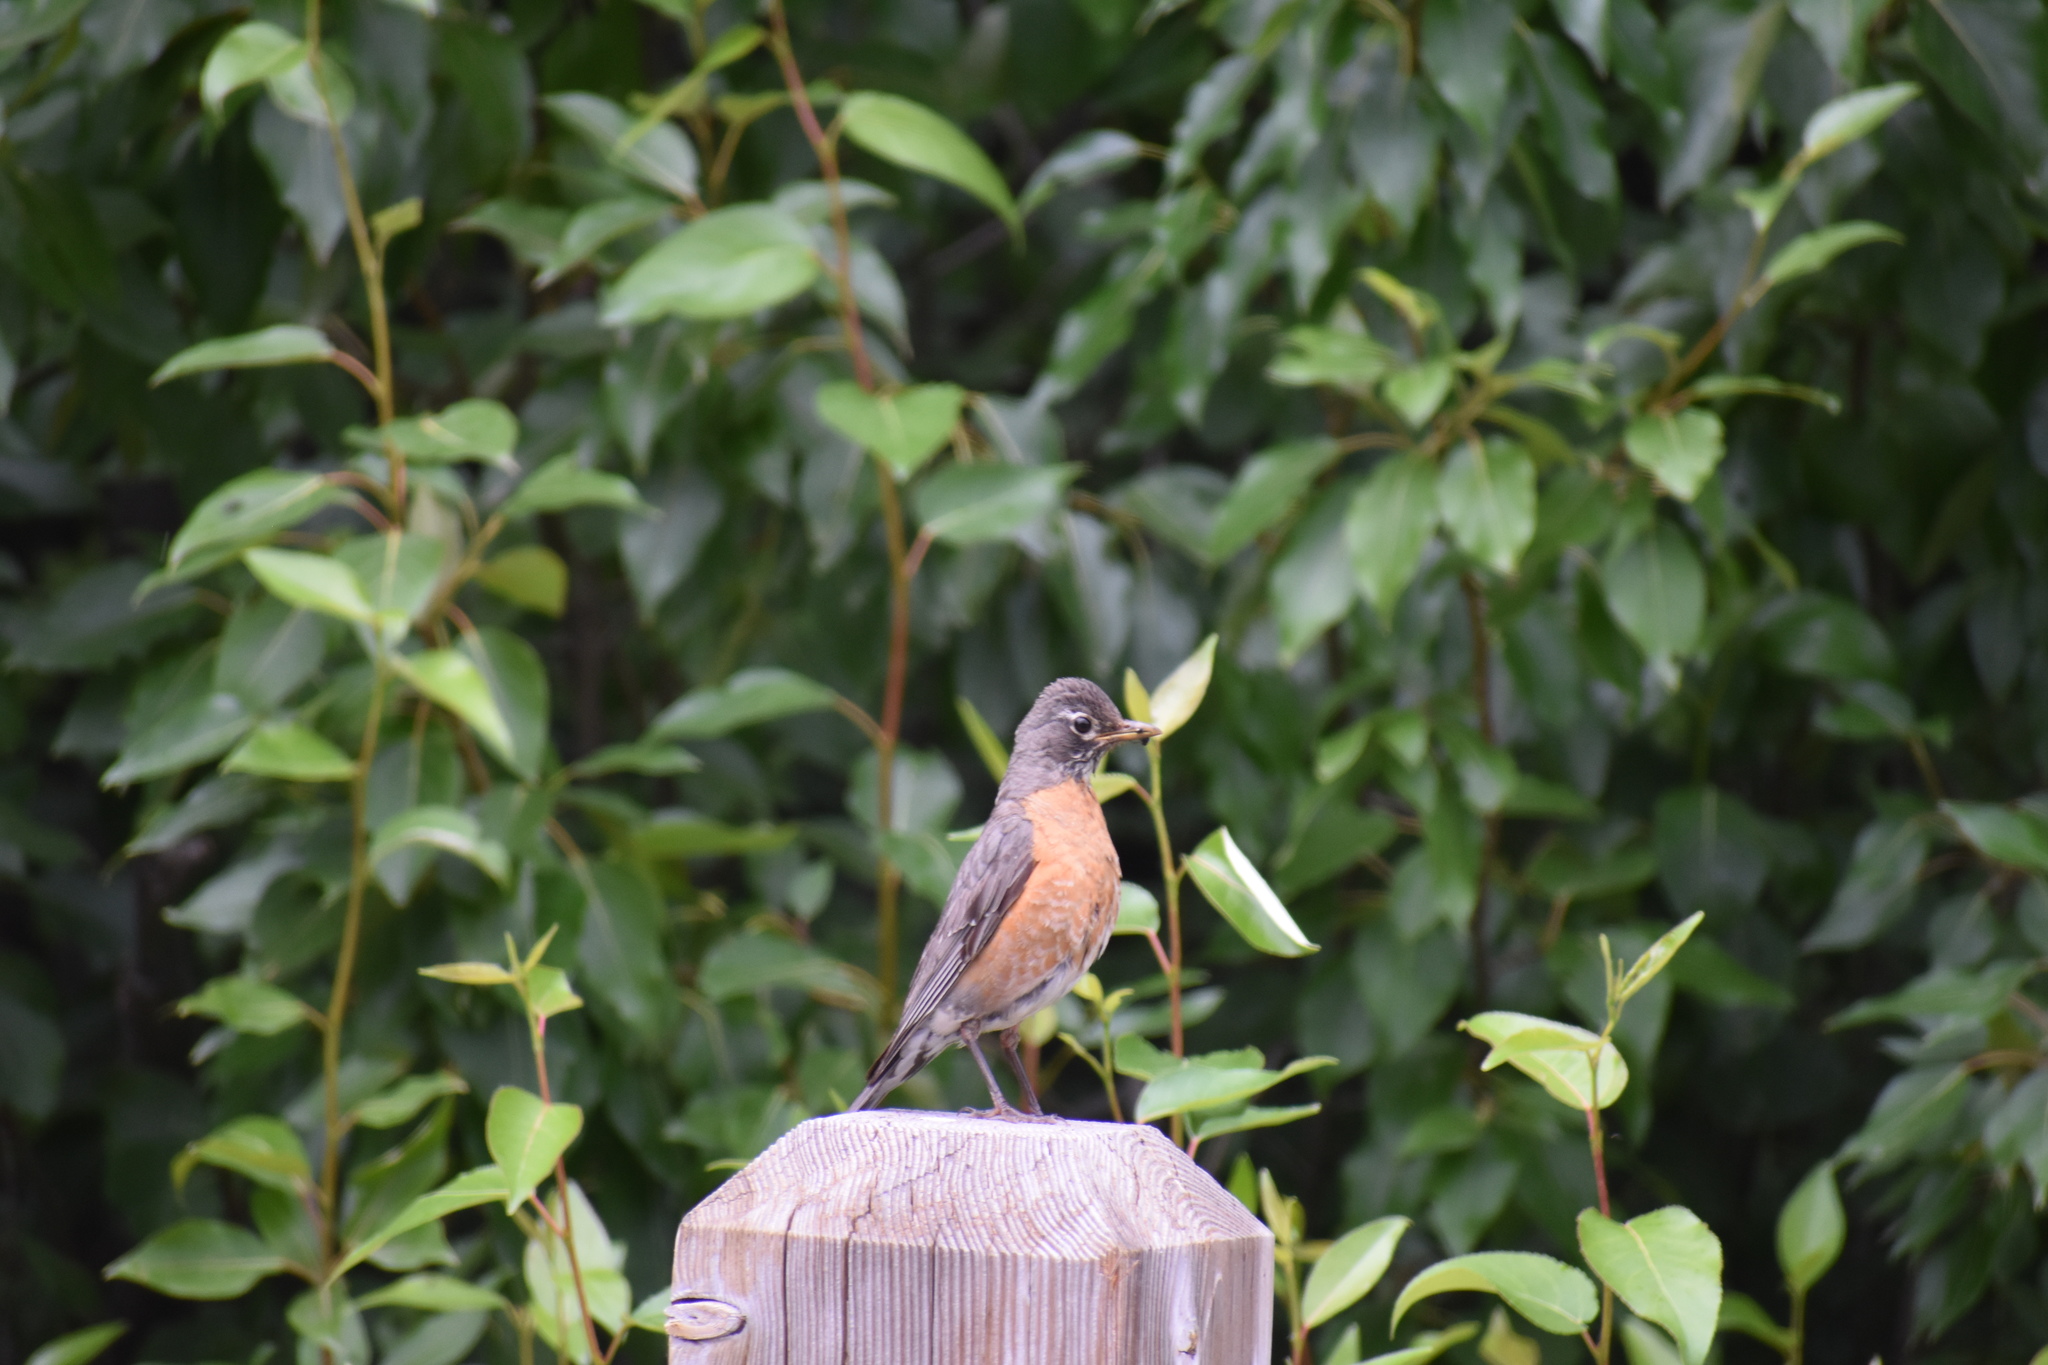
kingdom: Animalia
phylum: Chordata
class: Aves
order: Passeriformes
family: Turdidae
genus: Turdus
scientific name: Turdus migratorius
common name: American robin
